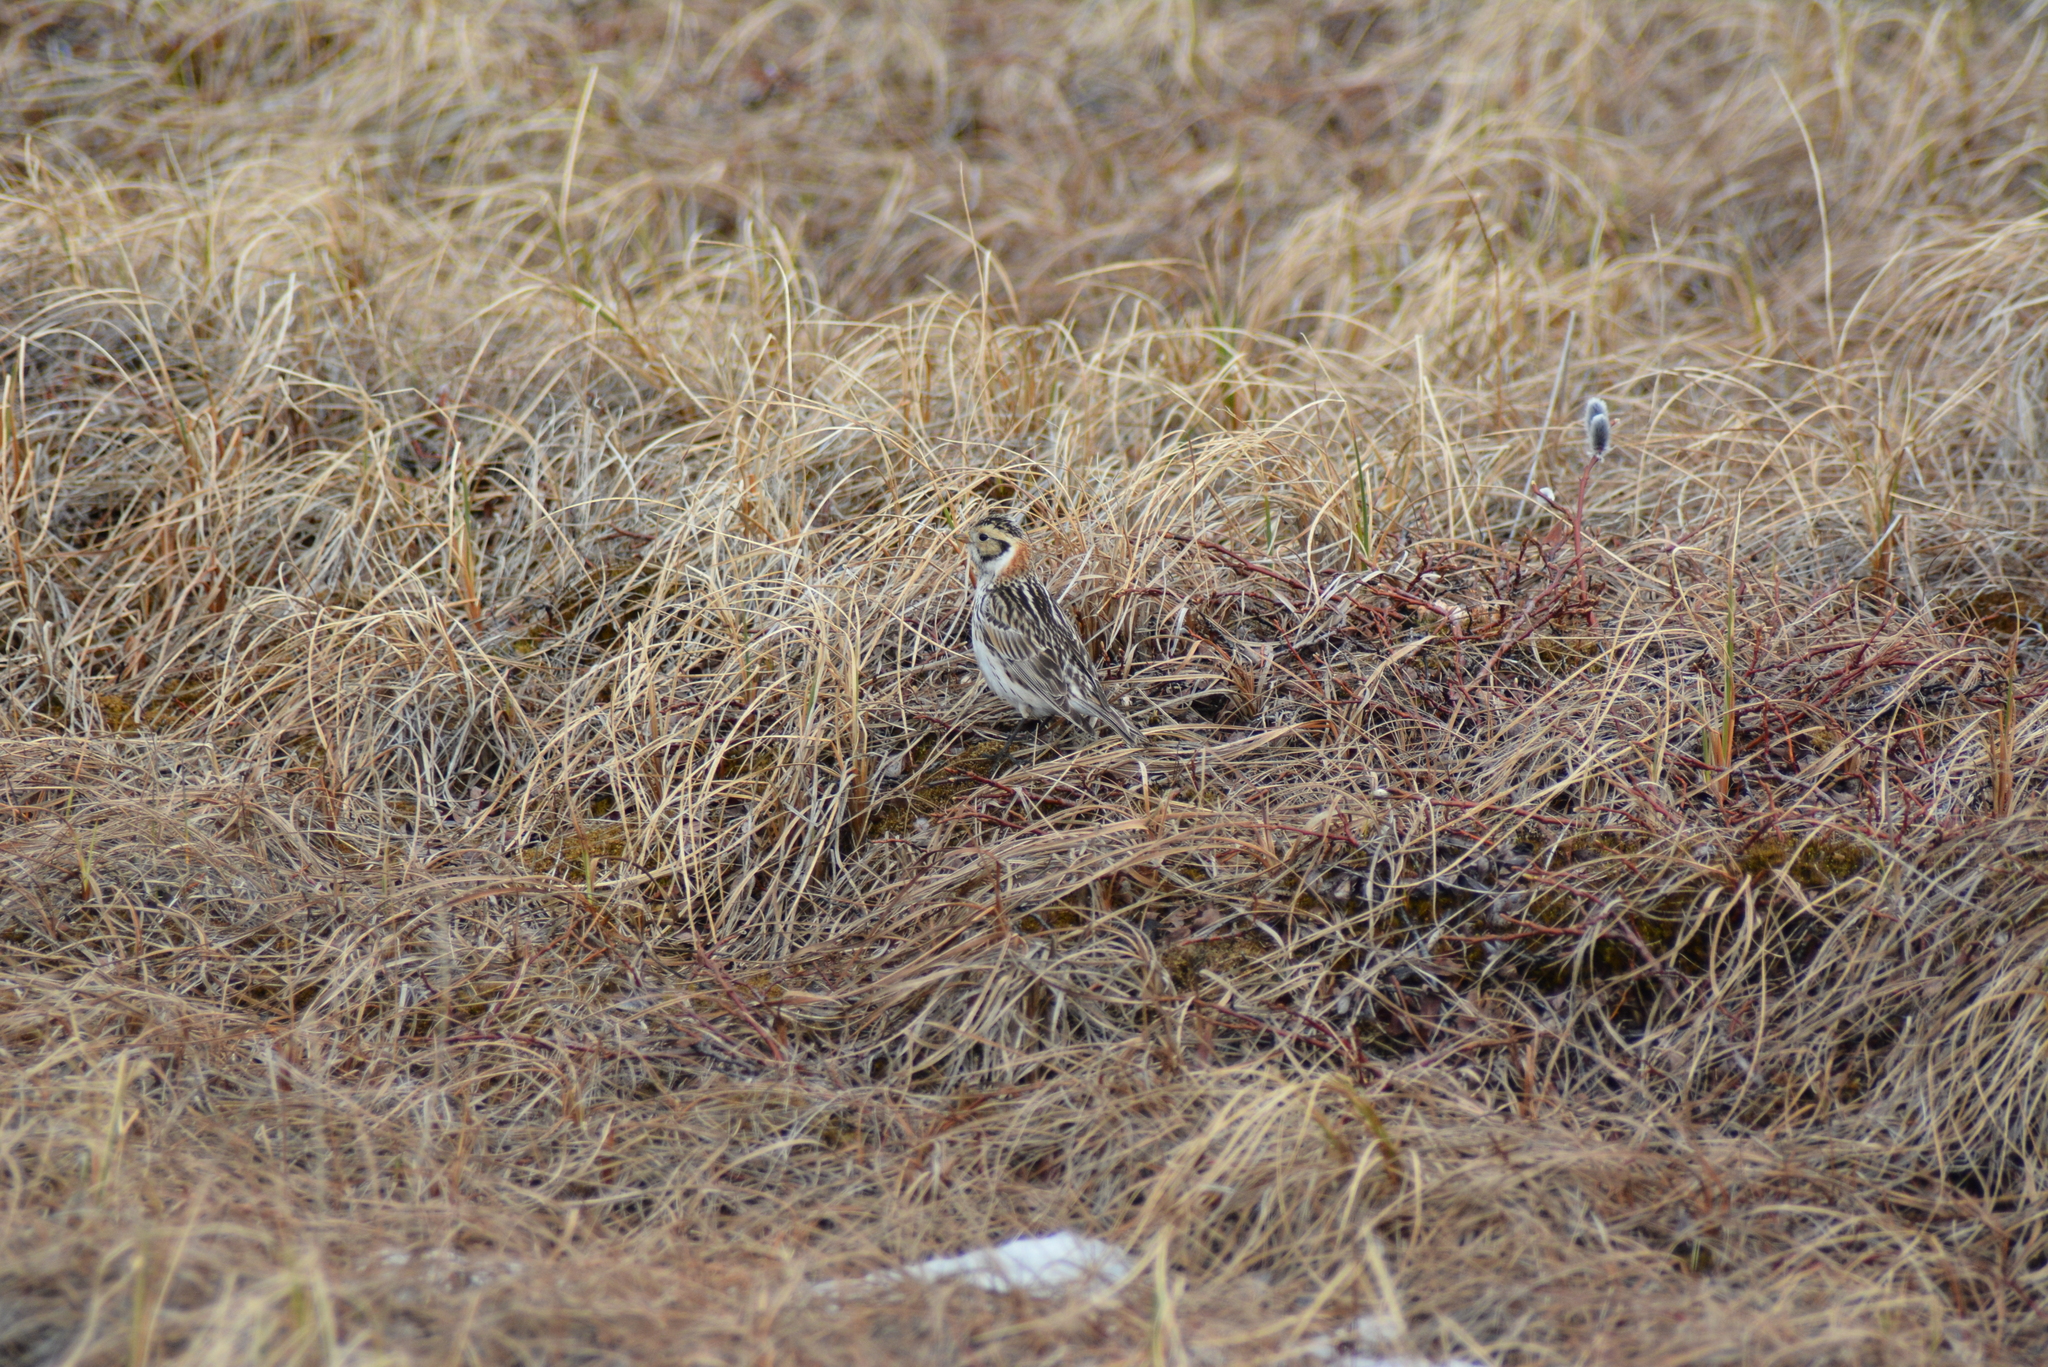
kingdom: Animalia
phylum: Chordata
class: Aves
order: Passeriformes
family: Calcariidae
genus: Calcarius
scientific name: Calcarius lapponicus
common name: Lapland longspur
